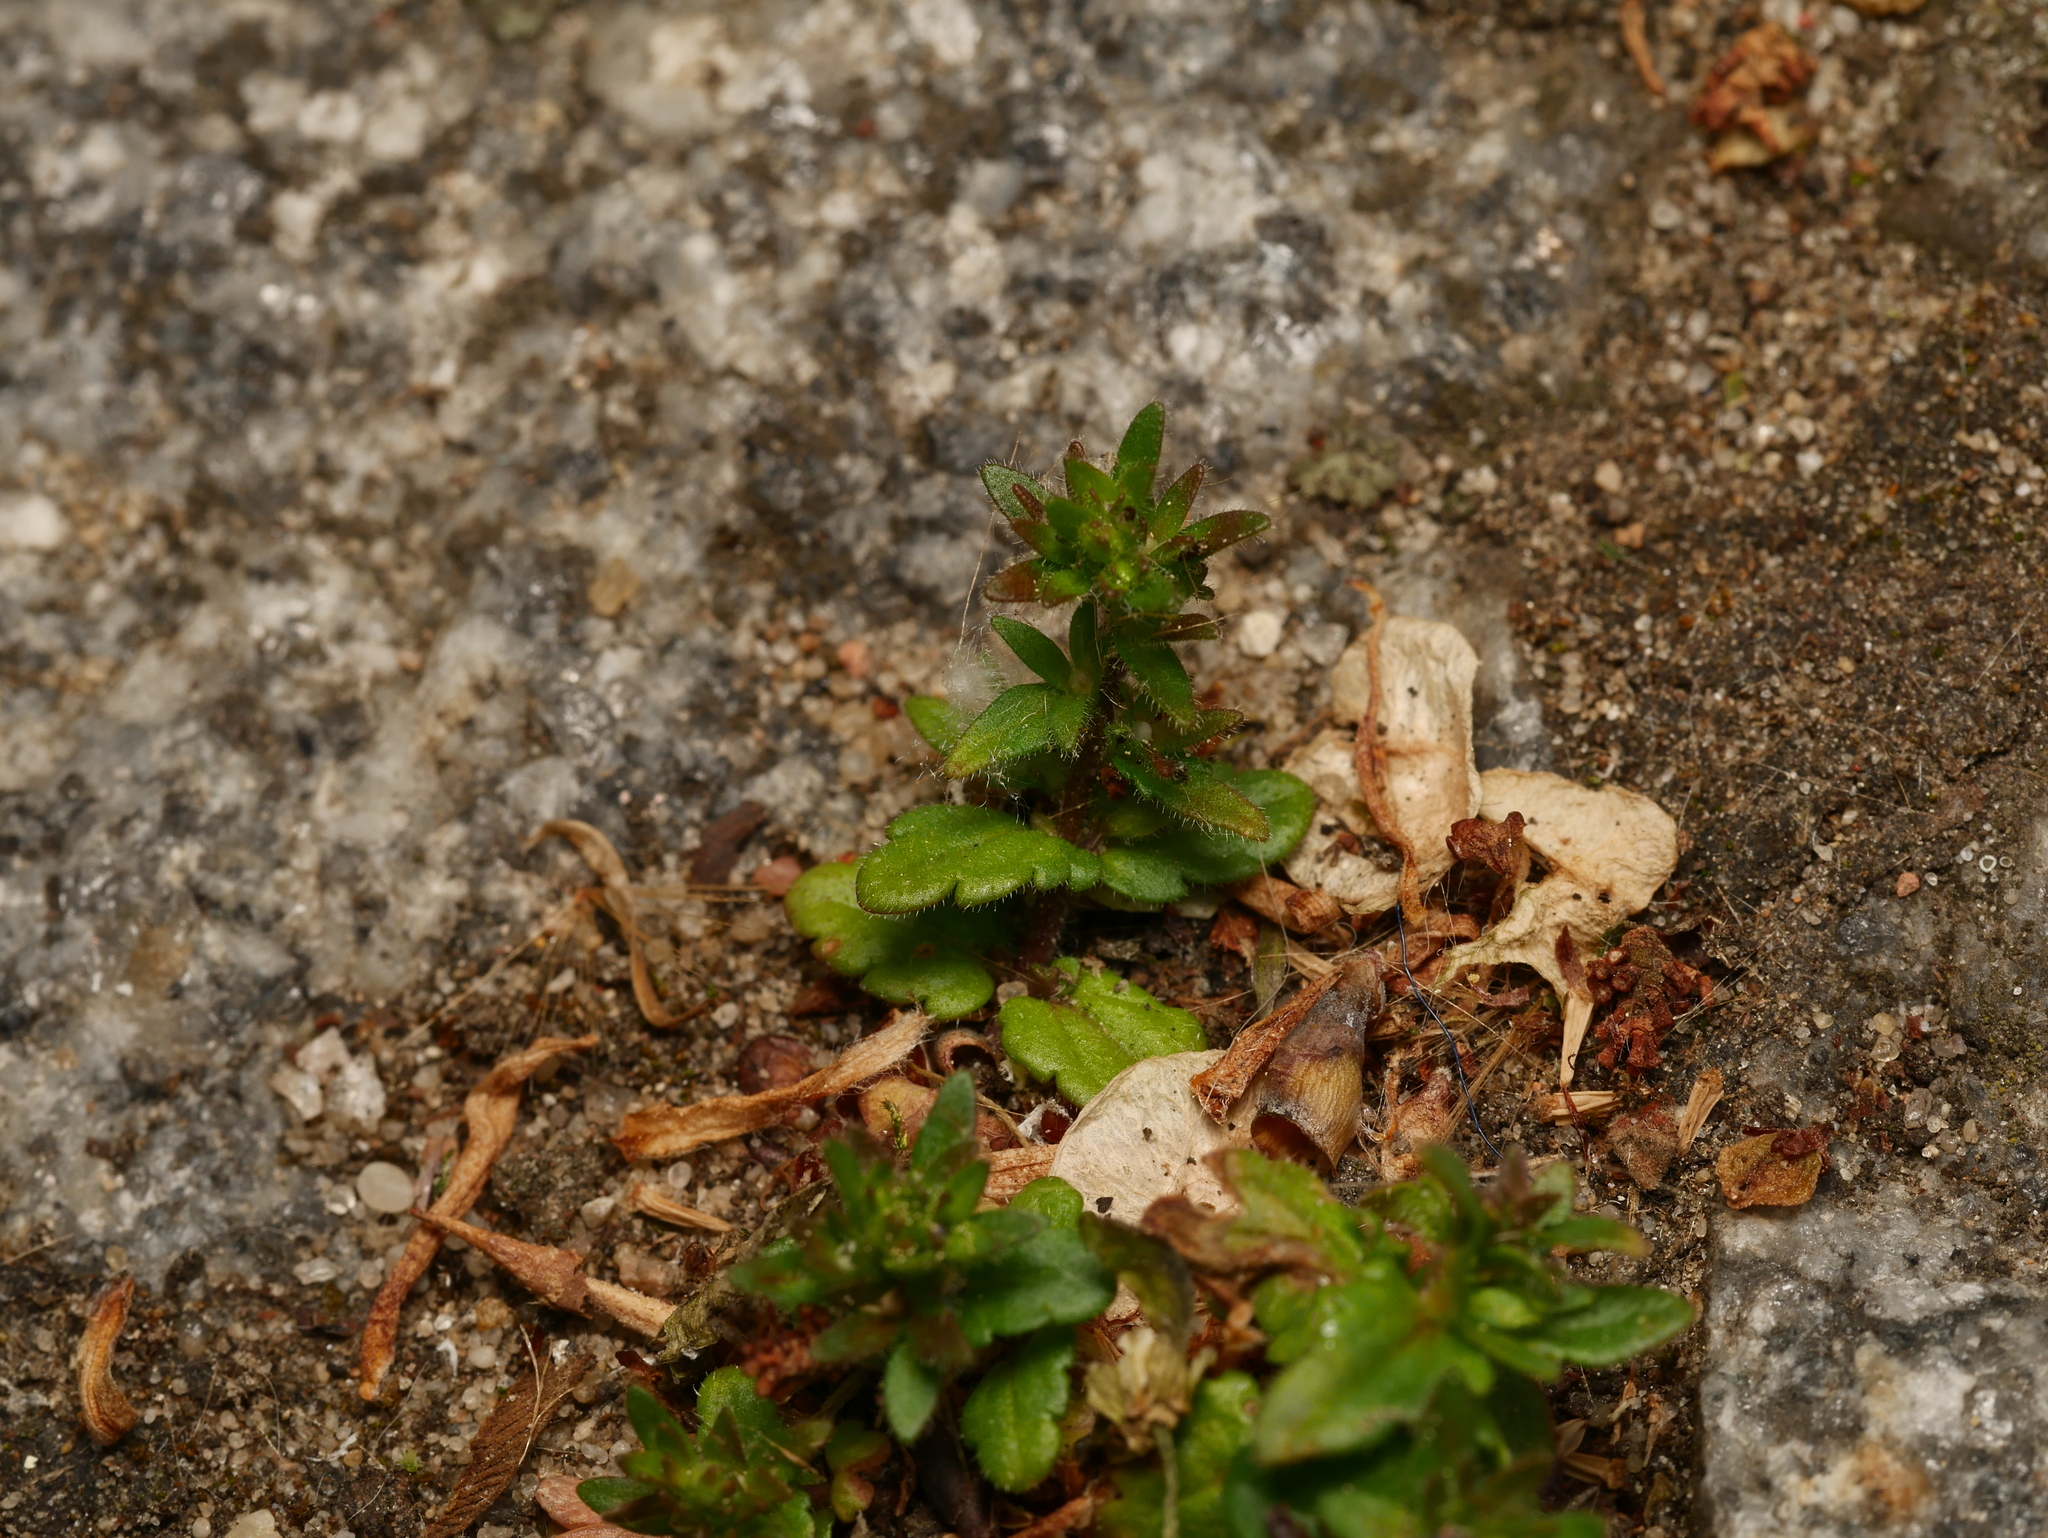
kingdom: Plantae
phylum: Tracheophyta
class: Magnoliopsida
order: Lamiales
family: Plantaginaceae
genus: Veronica
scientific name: Veronica arvensis
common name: Corn speedwell
